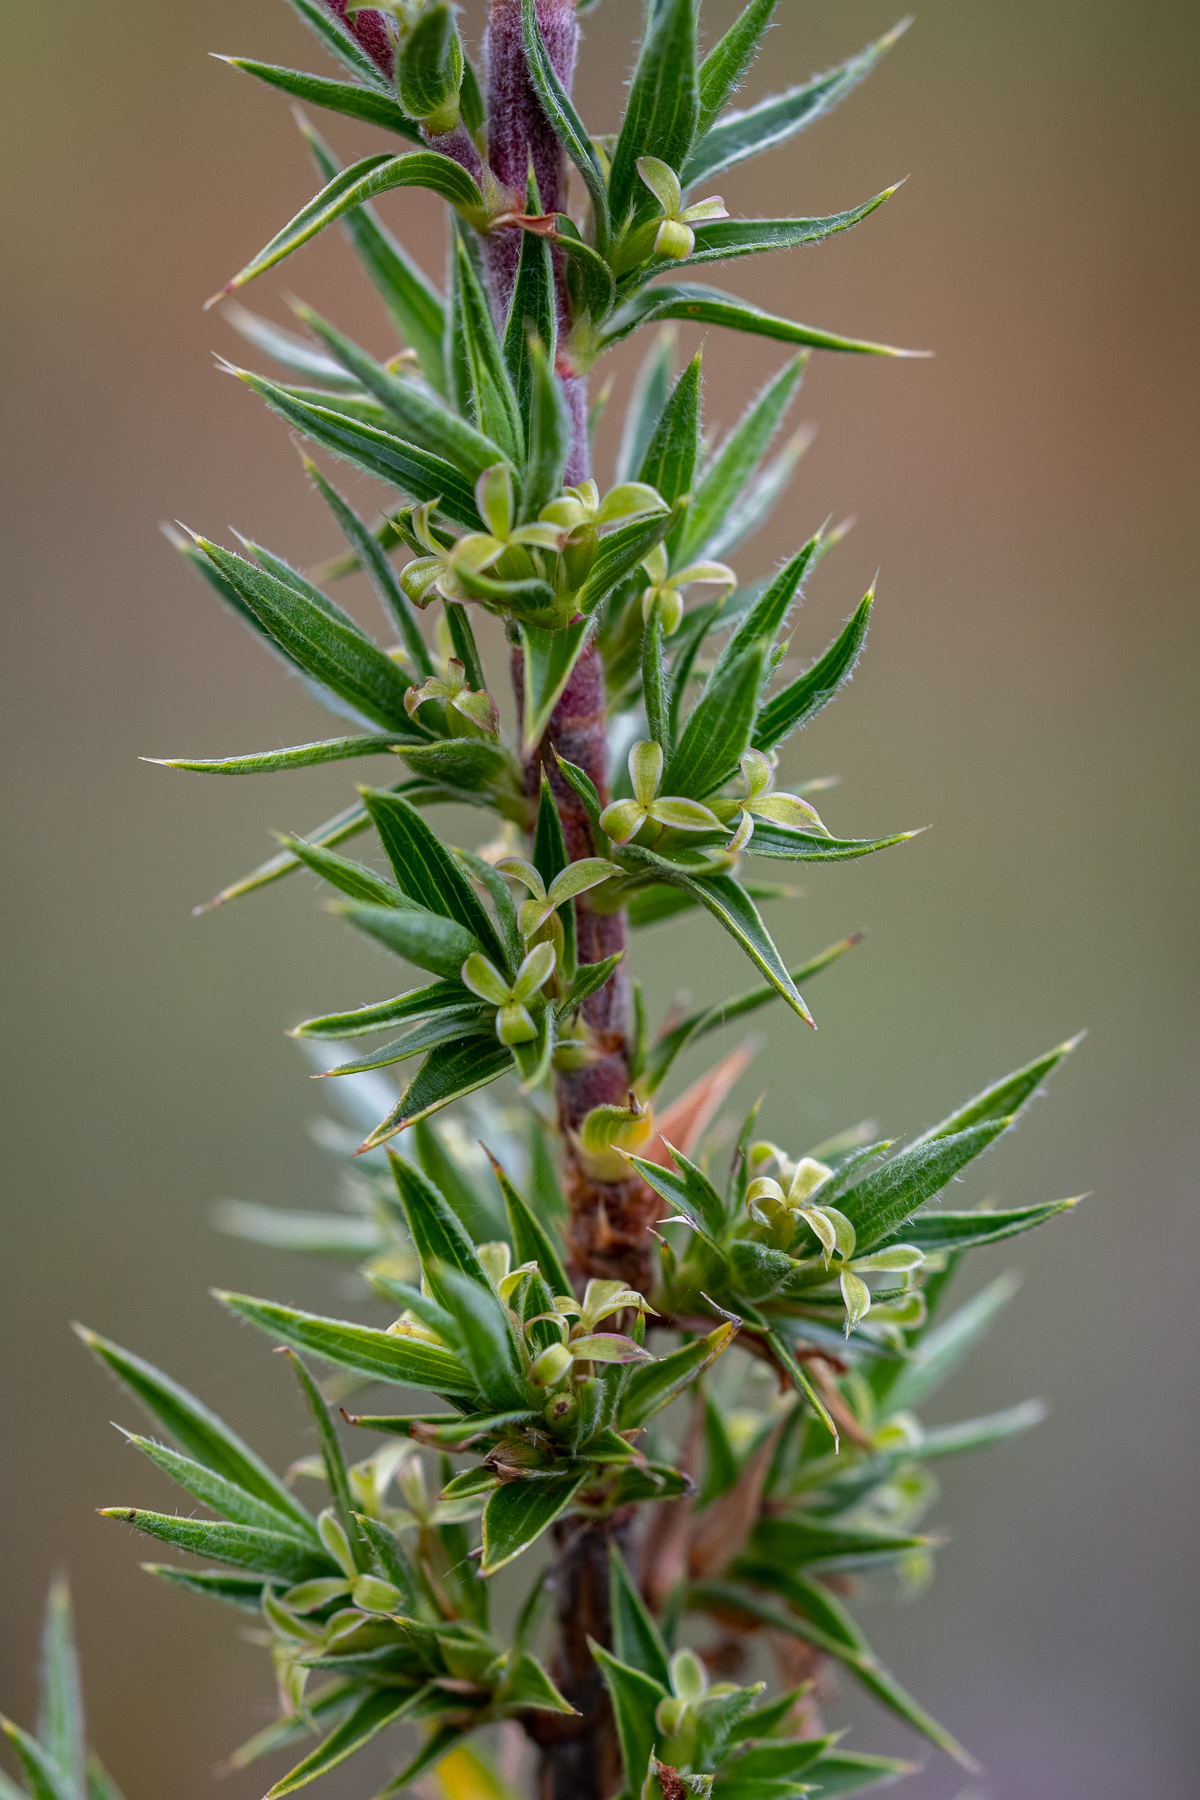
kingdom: Plantae
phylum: Tracheophyta
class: Magnoliopsida
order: Rosales
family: Rosaceae
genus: Cliffortia
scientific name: Cliffortia ruscifolia
